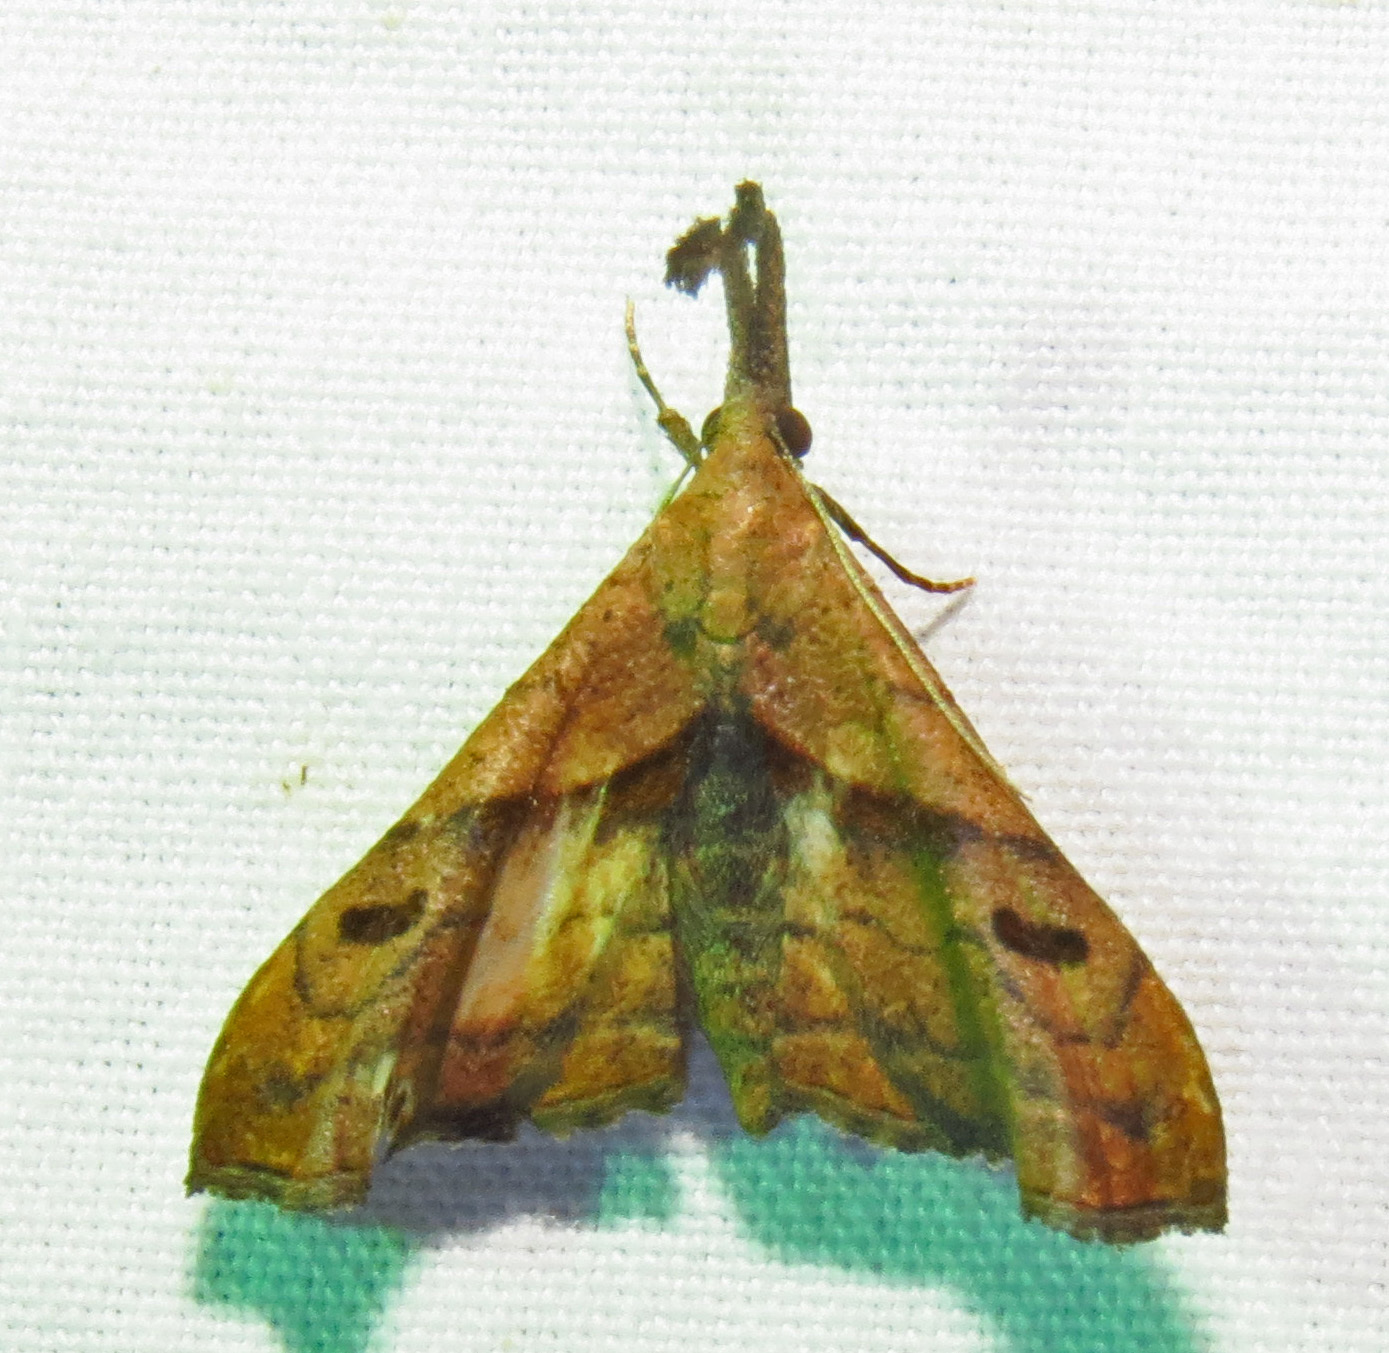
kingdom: Animalia
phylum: Arthropoda
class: Insecta
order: Lepidoptera
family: Erebidae
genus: Palthis
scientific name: Palthis angulalis
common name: Dark-spotted palthis moth
